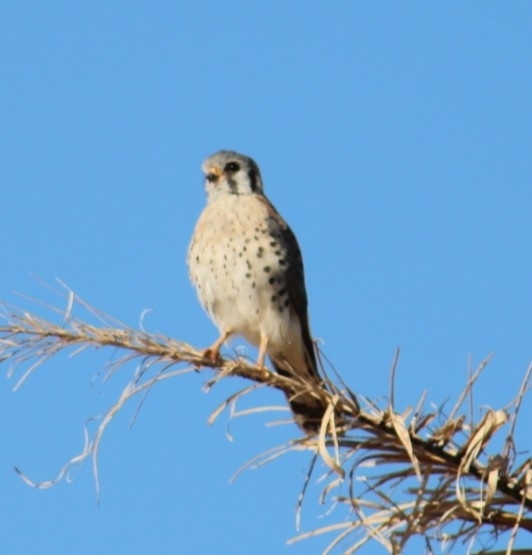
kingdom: Animalia
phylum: Chordata
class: Aves
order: Falconiformes
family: Falconidae
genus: Falco
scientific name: Falco sparverius
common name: American kestrel
